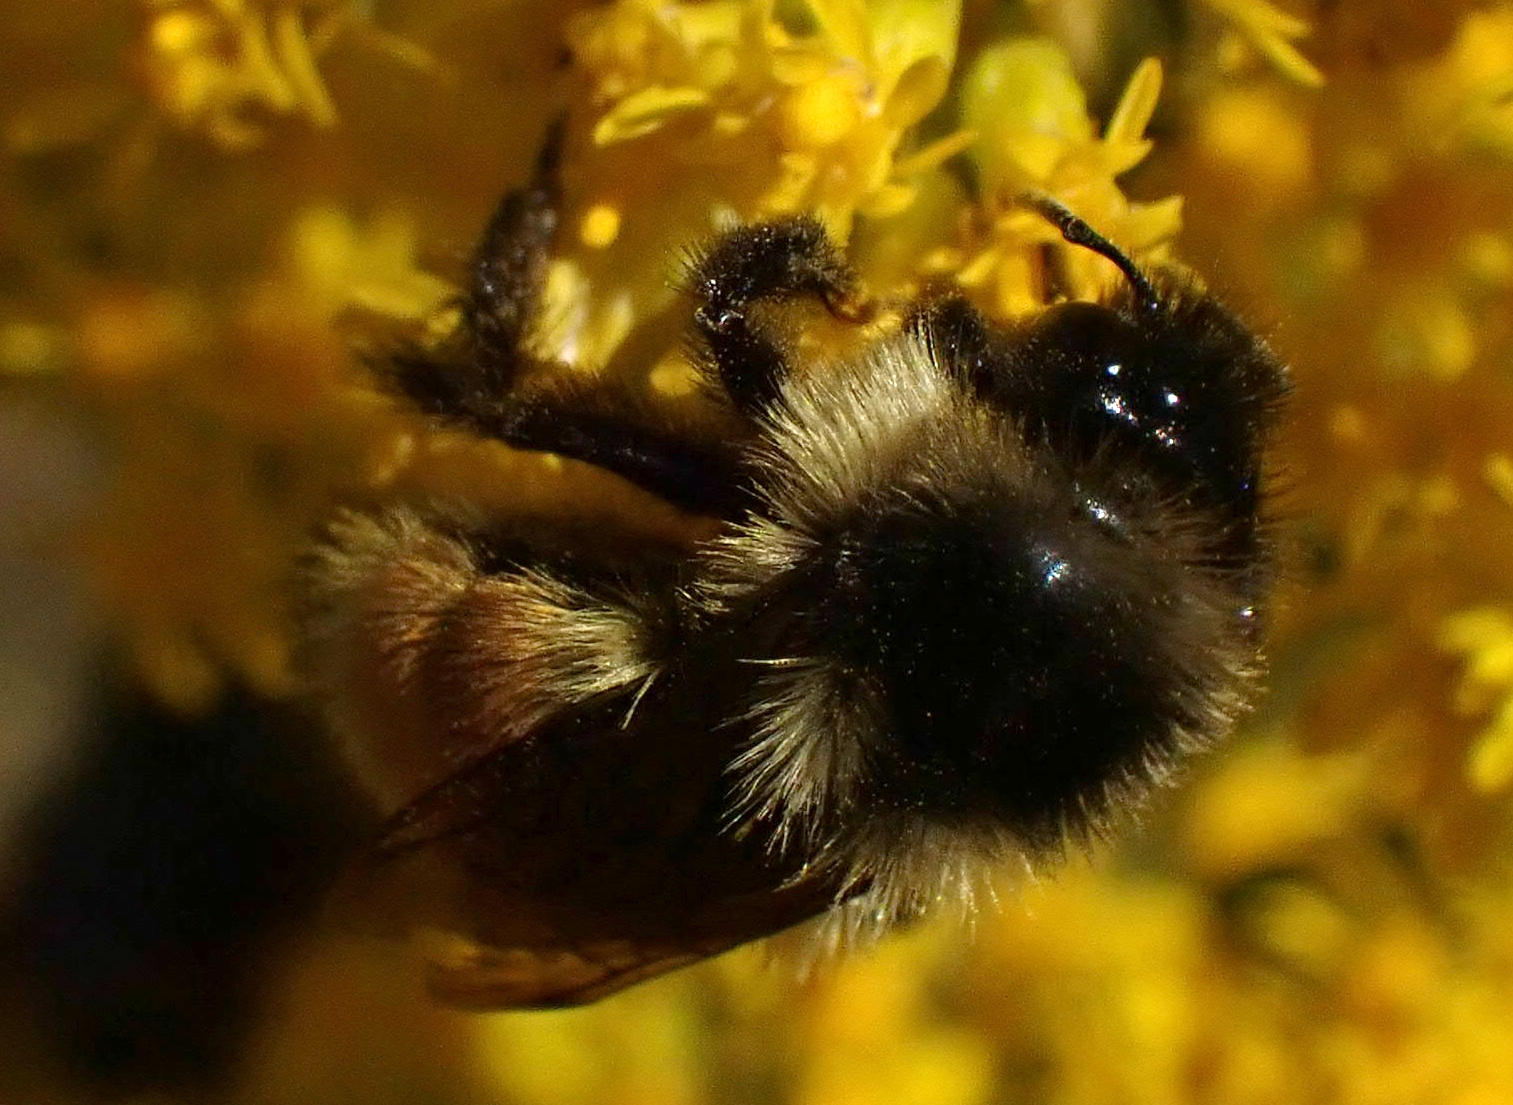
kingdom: Animalia
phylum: Arthropoda
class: Insecta
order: Hymenoptera
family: Apidae
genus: Bombus
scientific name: Bombus ternarius
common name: Tri-colored bumble bee
